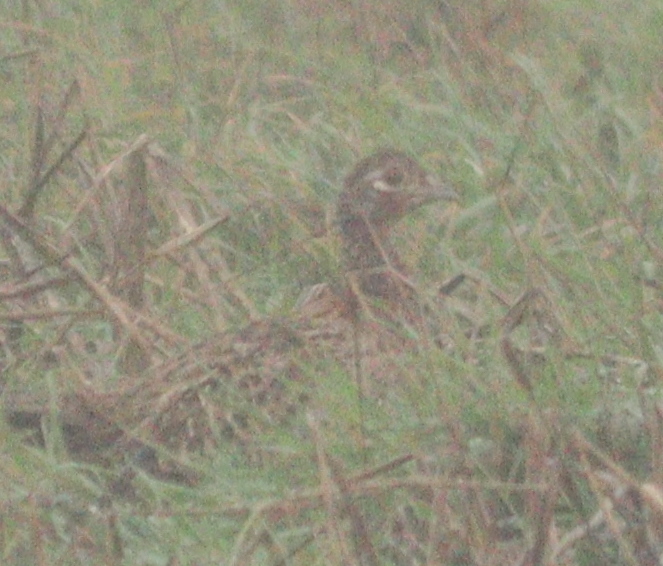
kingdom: Animalia
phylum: Chordata
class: Aves
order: Galliformes
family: Phasianidae
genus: Phasianus
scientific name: Phasianus colchicus
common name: Common pheasant
